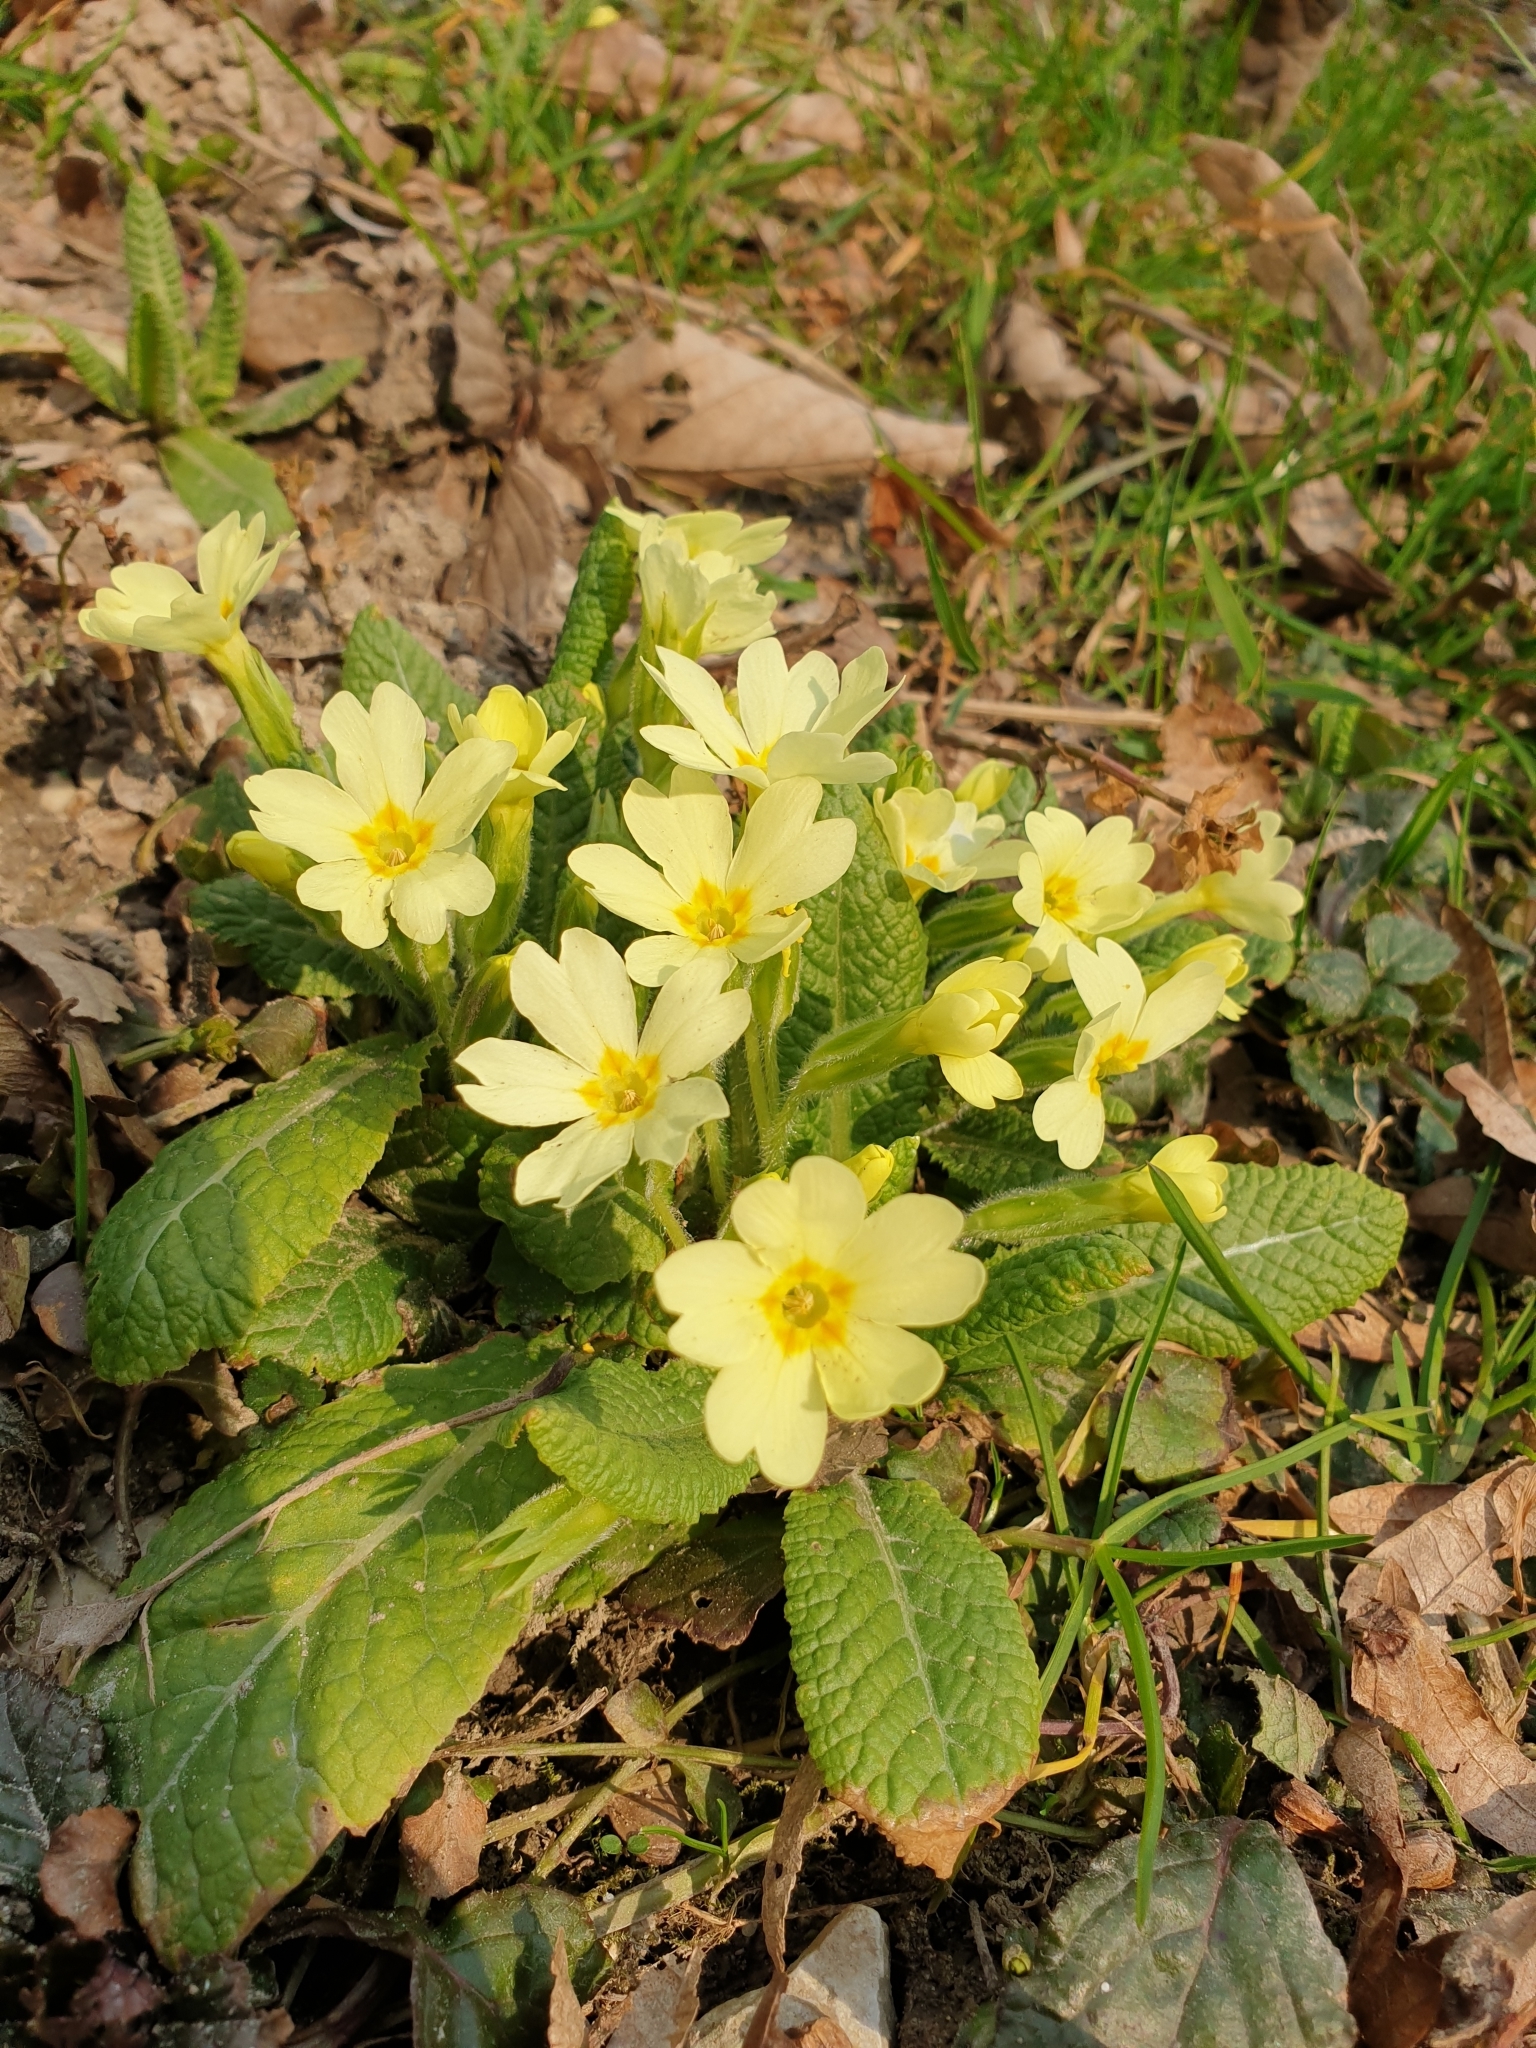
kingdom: Plantae
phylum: Tracheophyta
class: Magnoliopsida
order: Ericales
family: Primulaceae
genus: Primula
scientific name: Primula vulgaris
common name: Primrose
